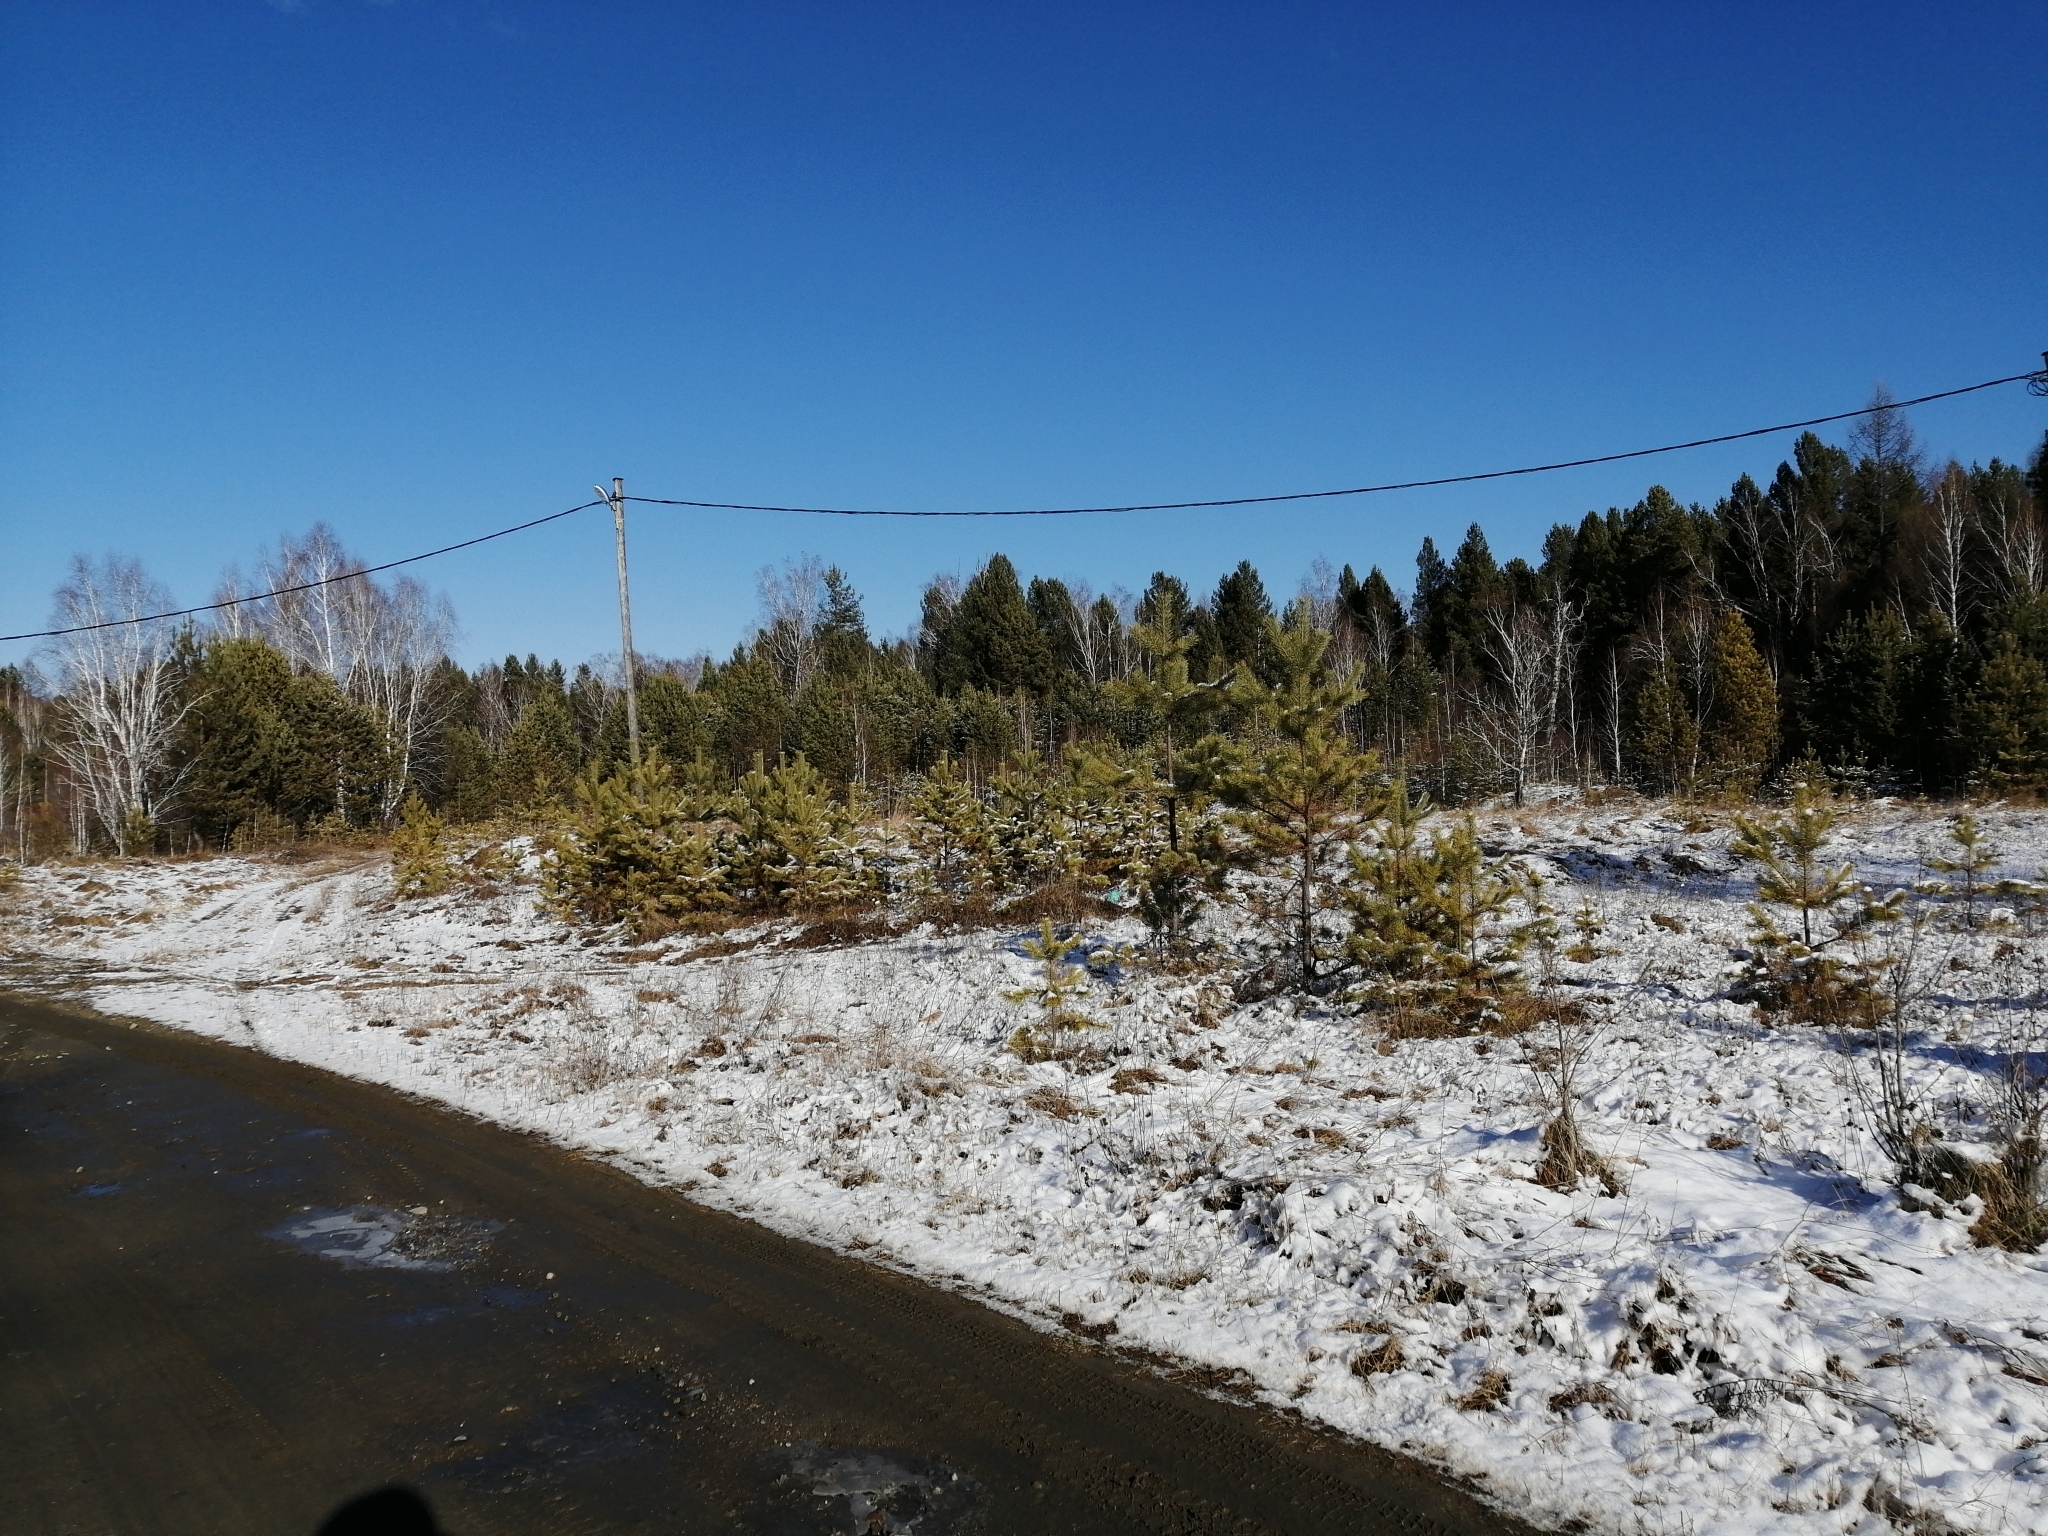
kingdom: Plantae
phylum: Tracheophyta
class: Pinopsida
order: Pinales
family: Pinaceae
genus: Pinus
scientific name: Pinus sylvestris
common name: Scots pine
